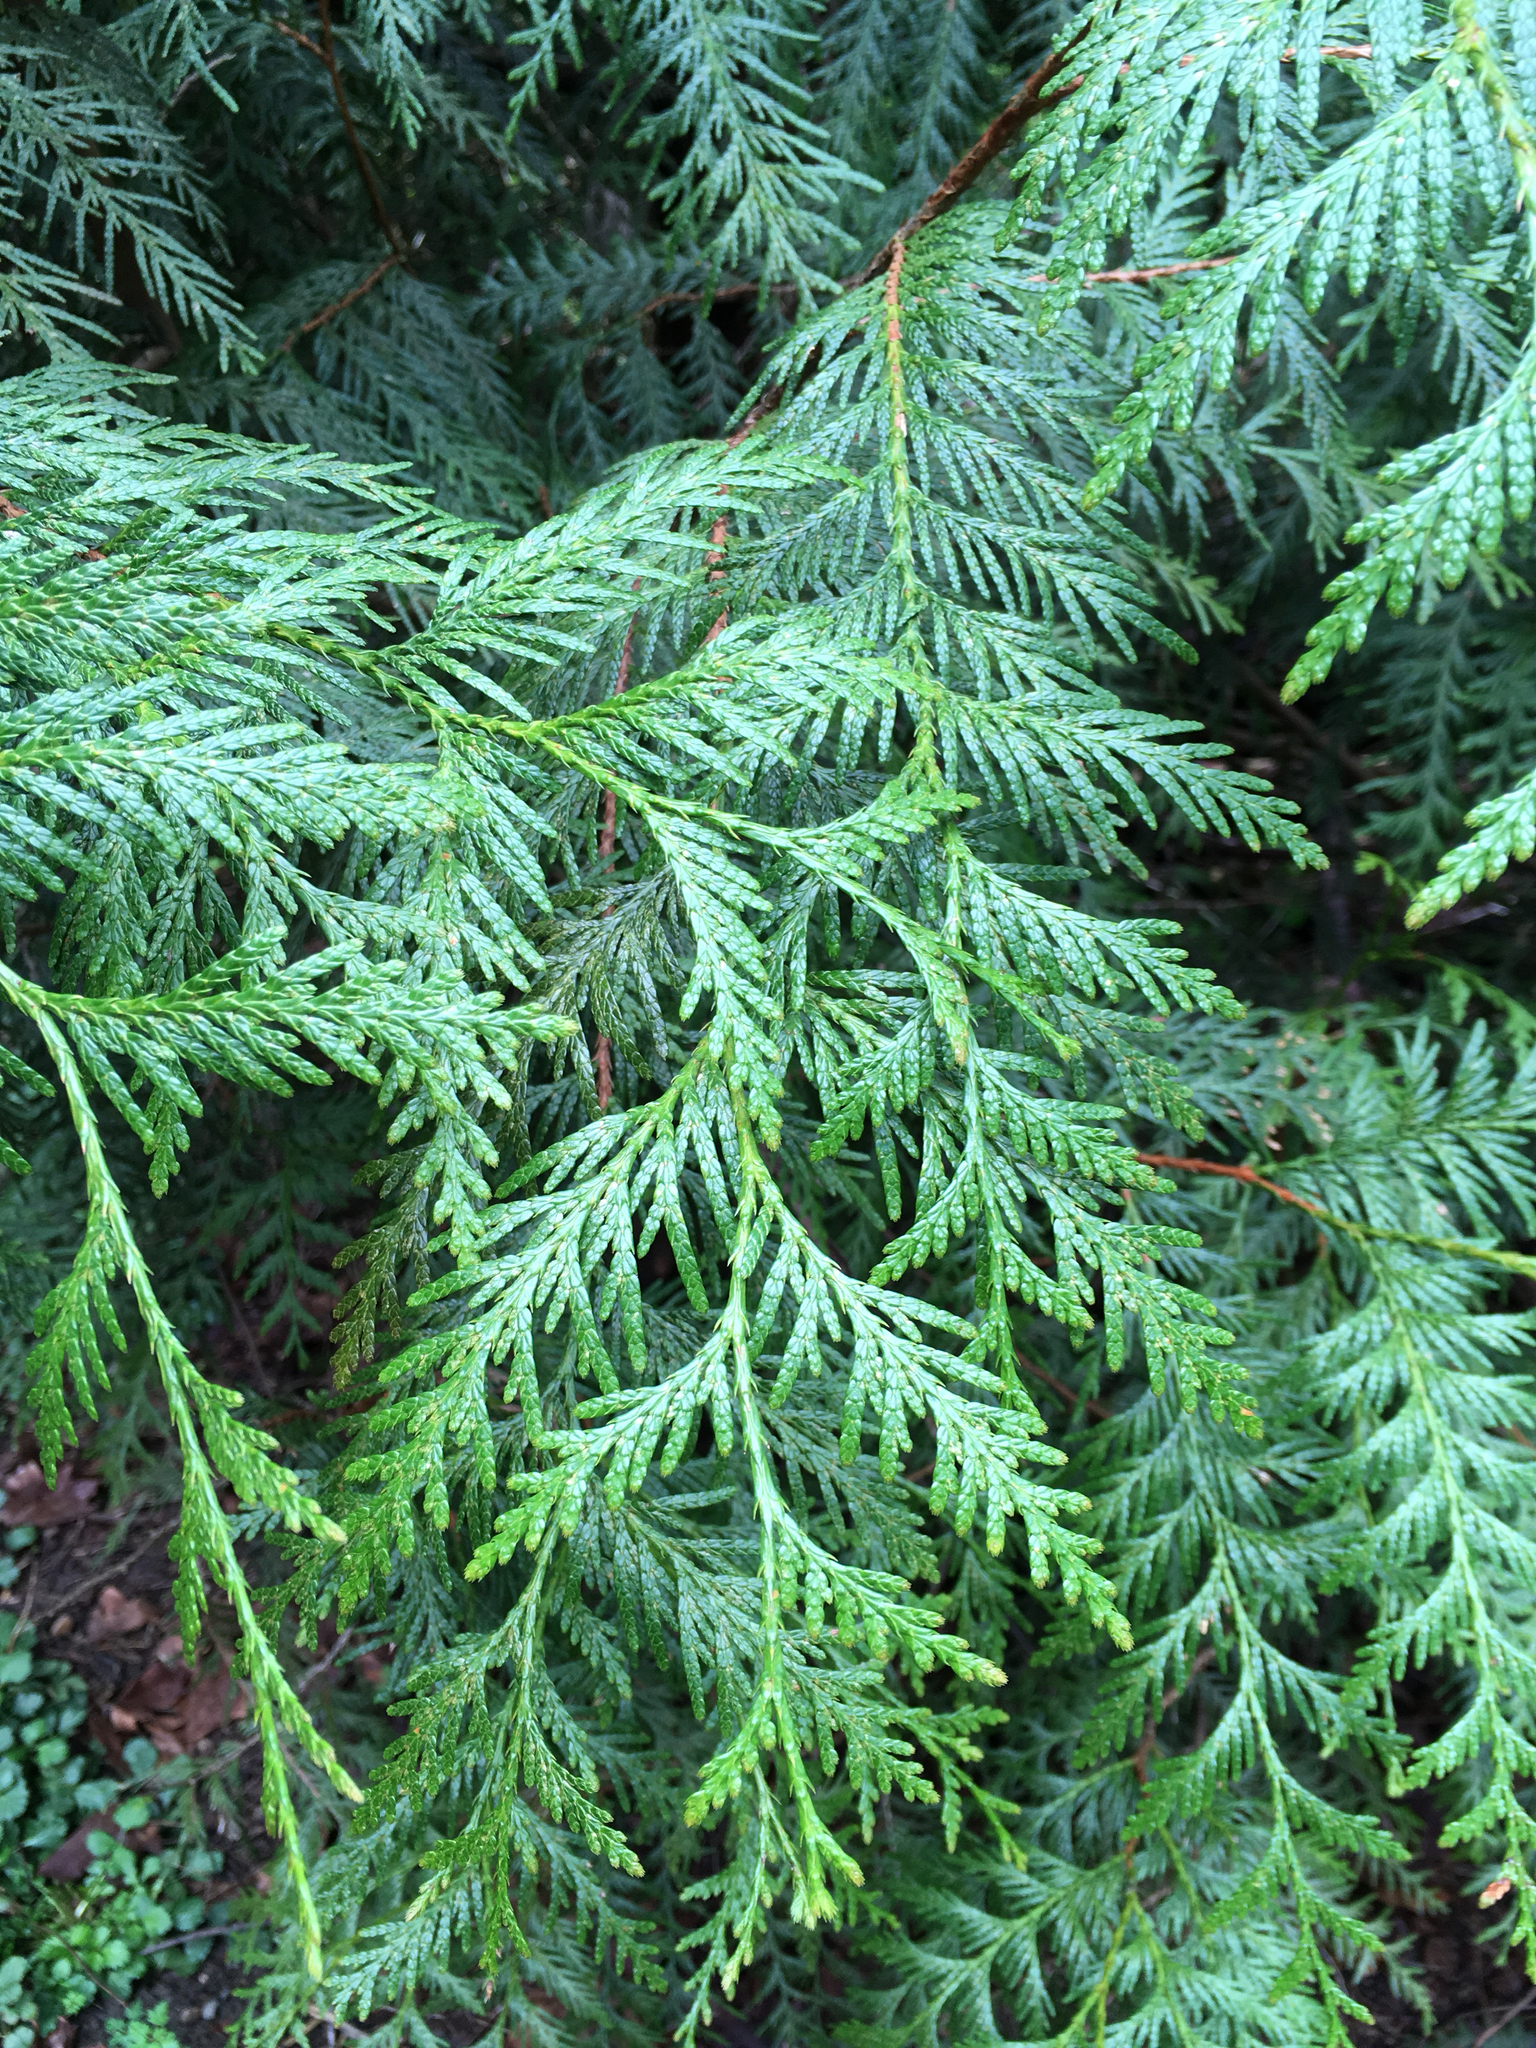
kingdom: Plantae
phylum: Tracheophyta
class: Pinopsida
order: Pinales
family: Cupressaceae
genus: Thuja
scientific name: Thuja plicata
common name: Western red-cedar
